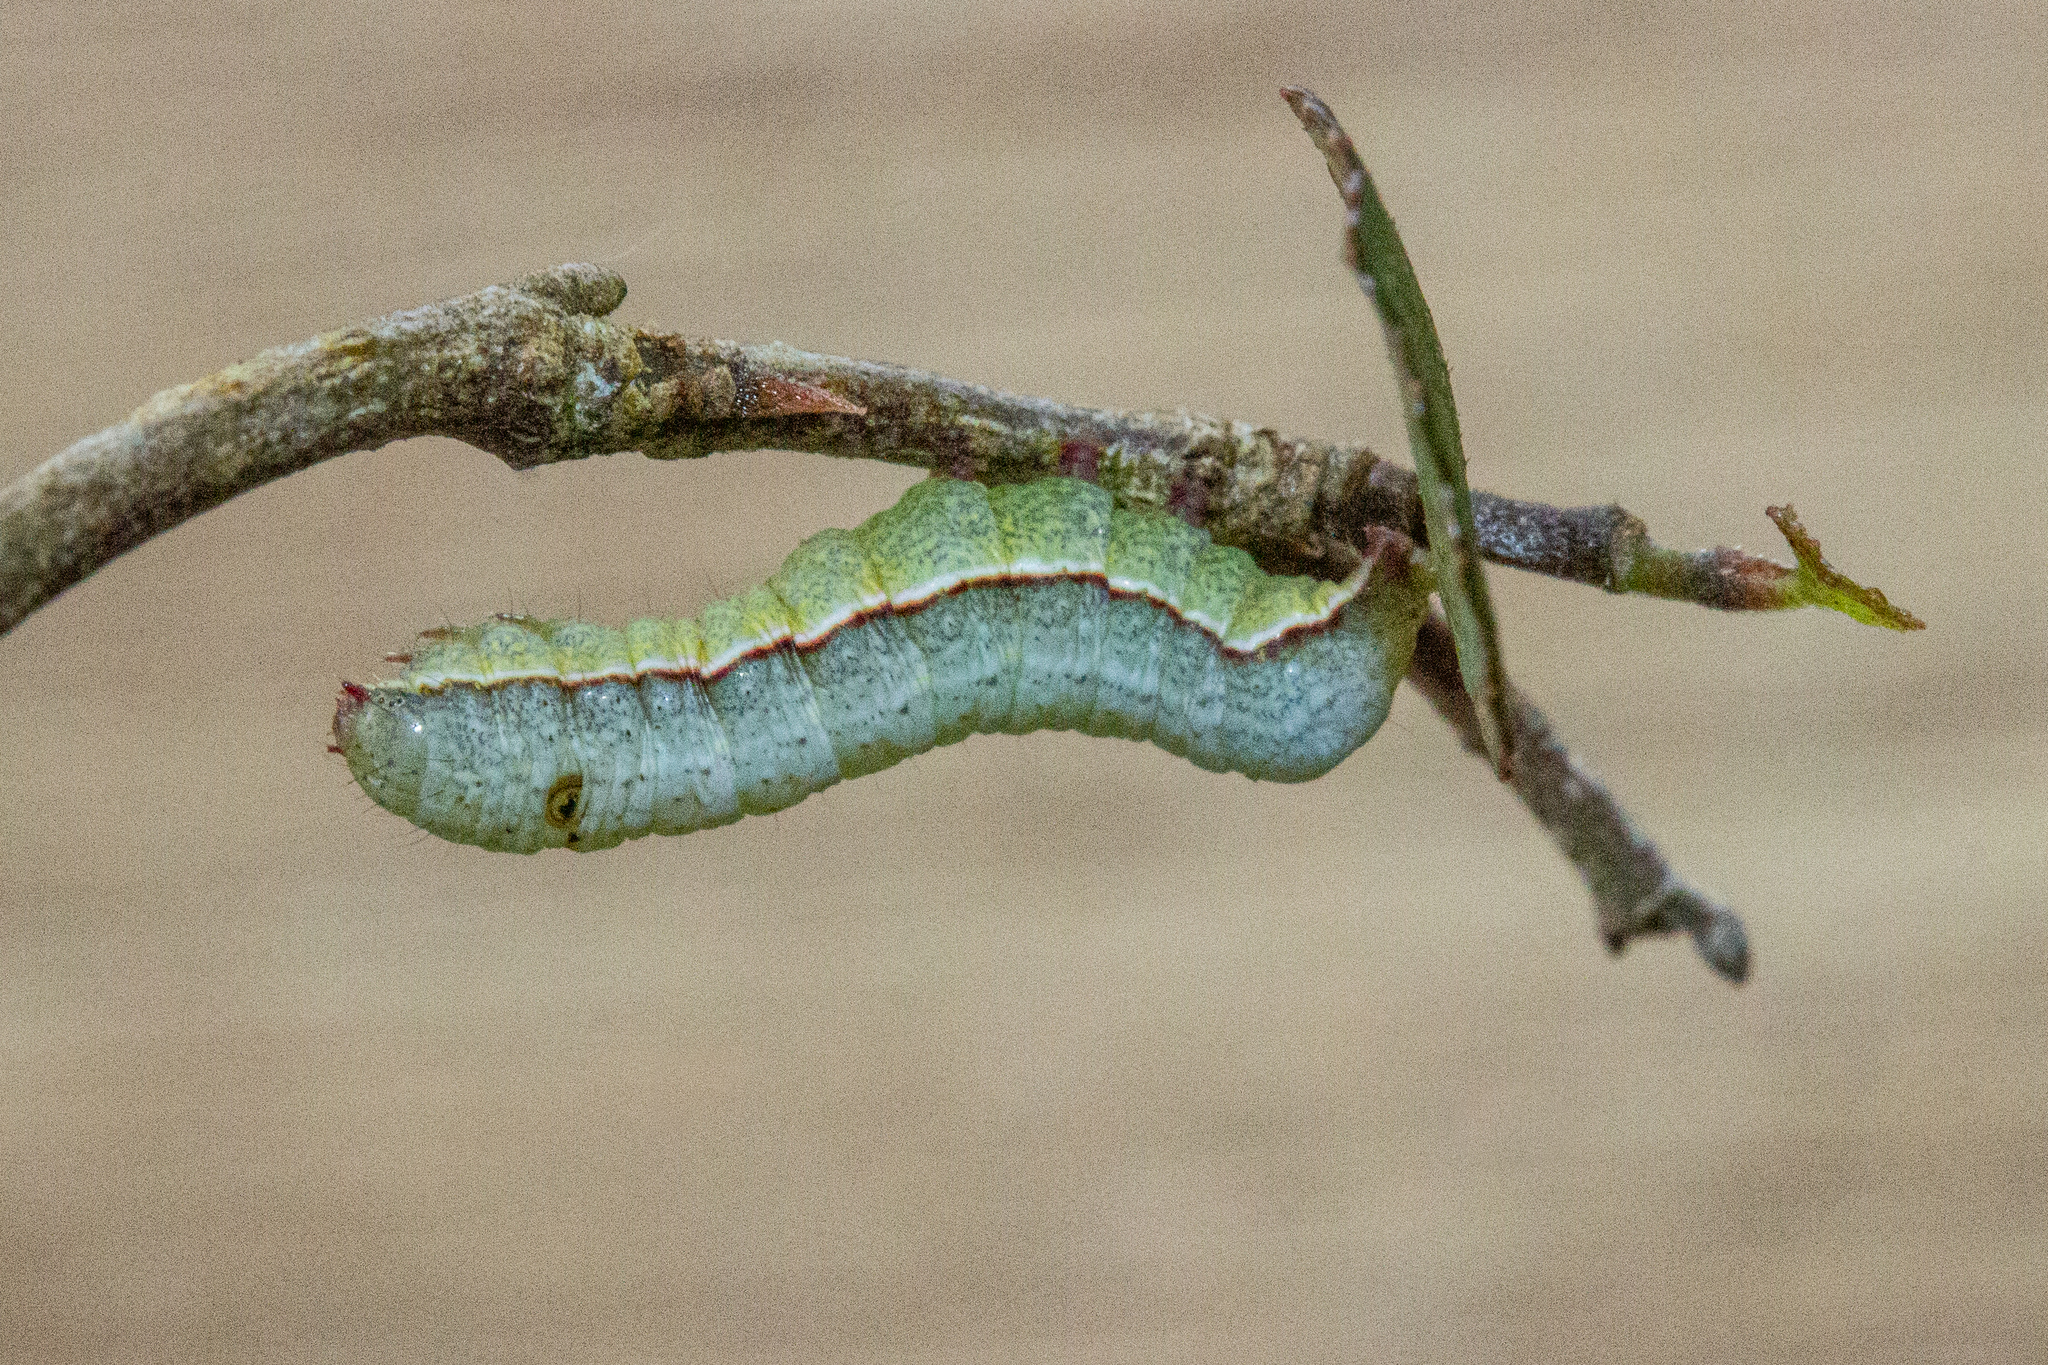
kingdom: Animalia
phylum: Arthropoda
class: Insecta
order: Lepidoptera
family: Noctuidae
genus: Meterana
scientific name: Meterana ochthistis
